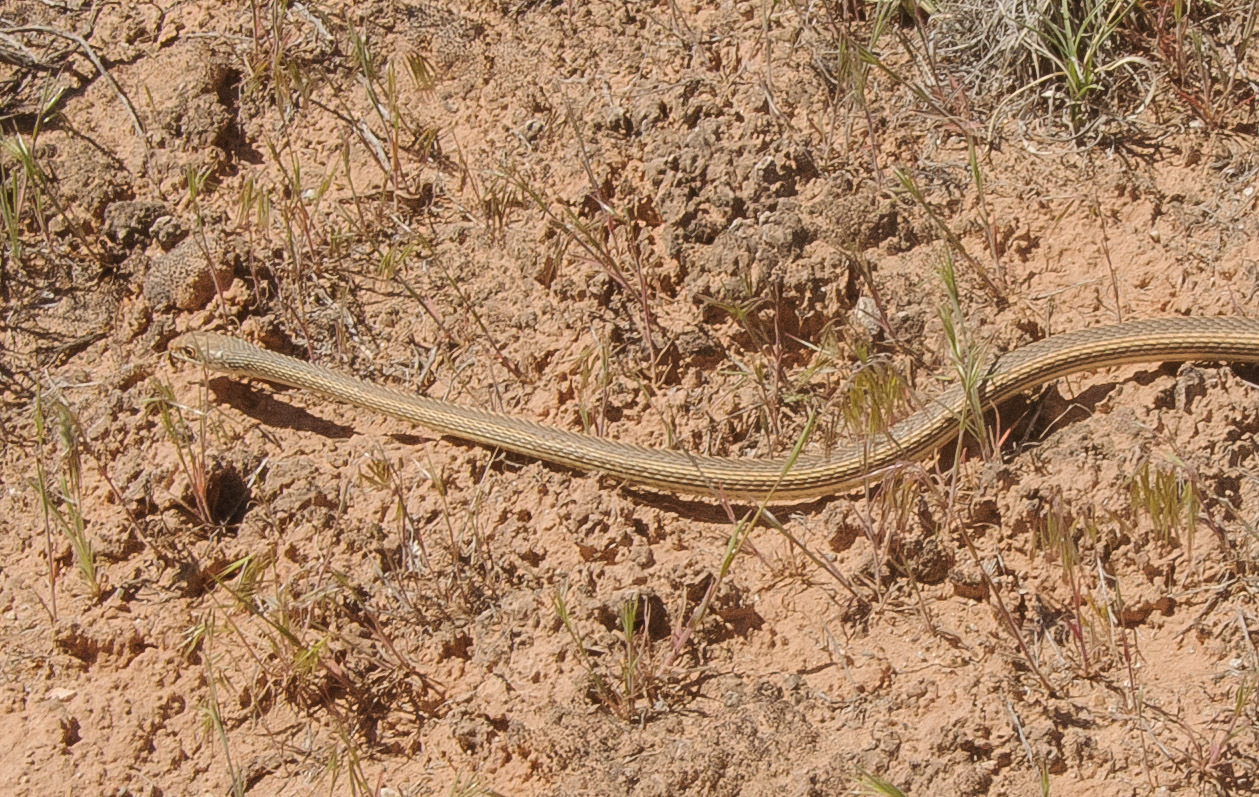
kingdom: Animalia
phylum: Chordata
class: Squamata
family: Colubridae
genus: Masticophis
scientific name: Masticophis taeniatus
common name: Striped whipsnake
